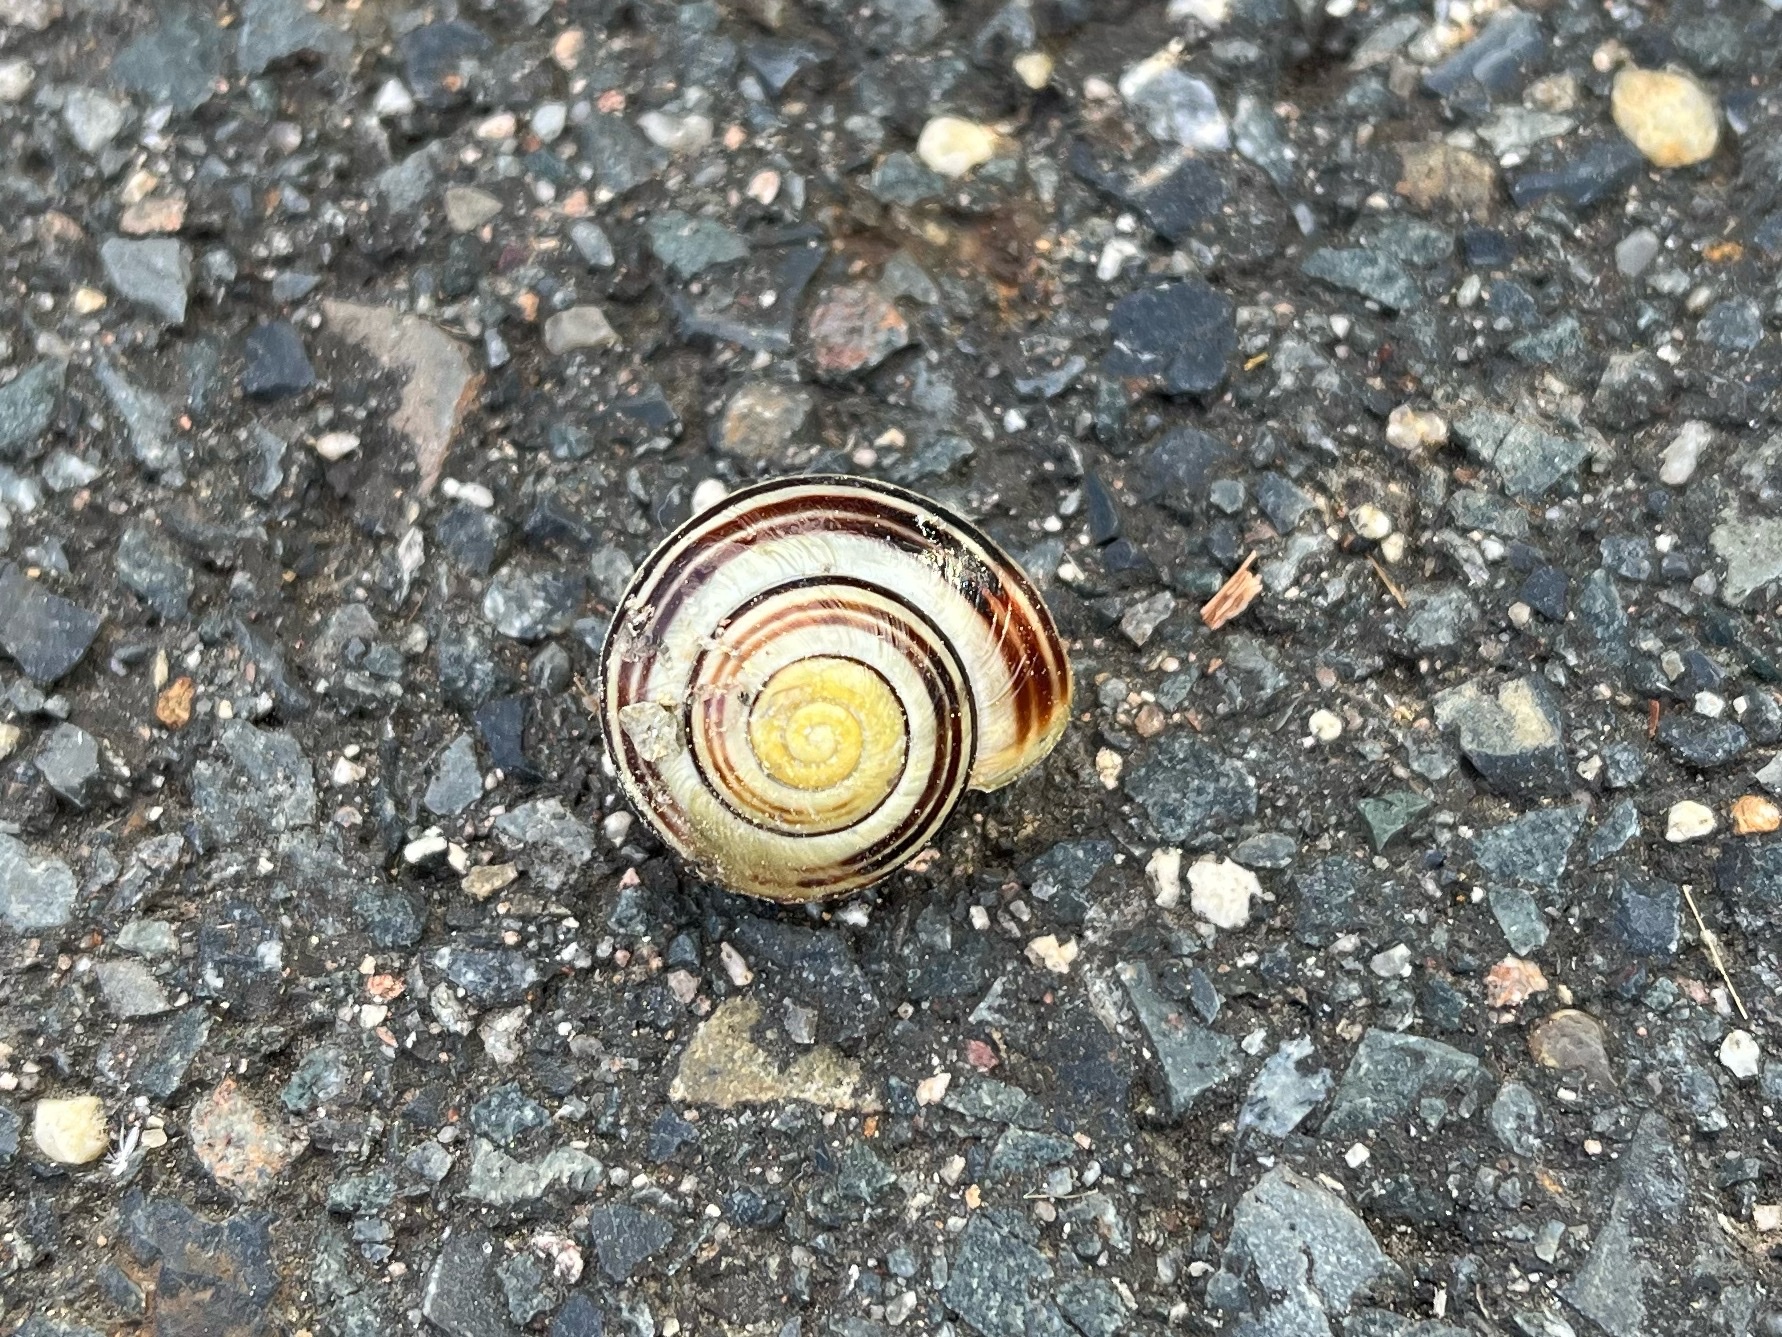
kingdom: Animalia
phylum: Mollusca
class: Gastropoda
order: Stylommatophora
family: Helicidae
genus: Cepaea
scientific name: Cepaea hortensis
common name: White-lip gardensnail
